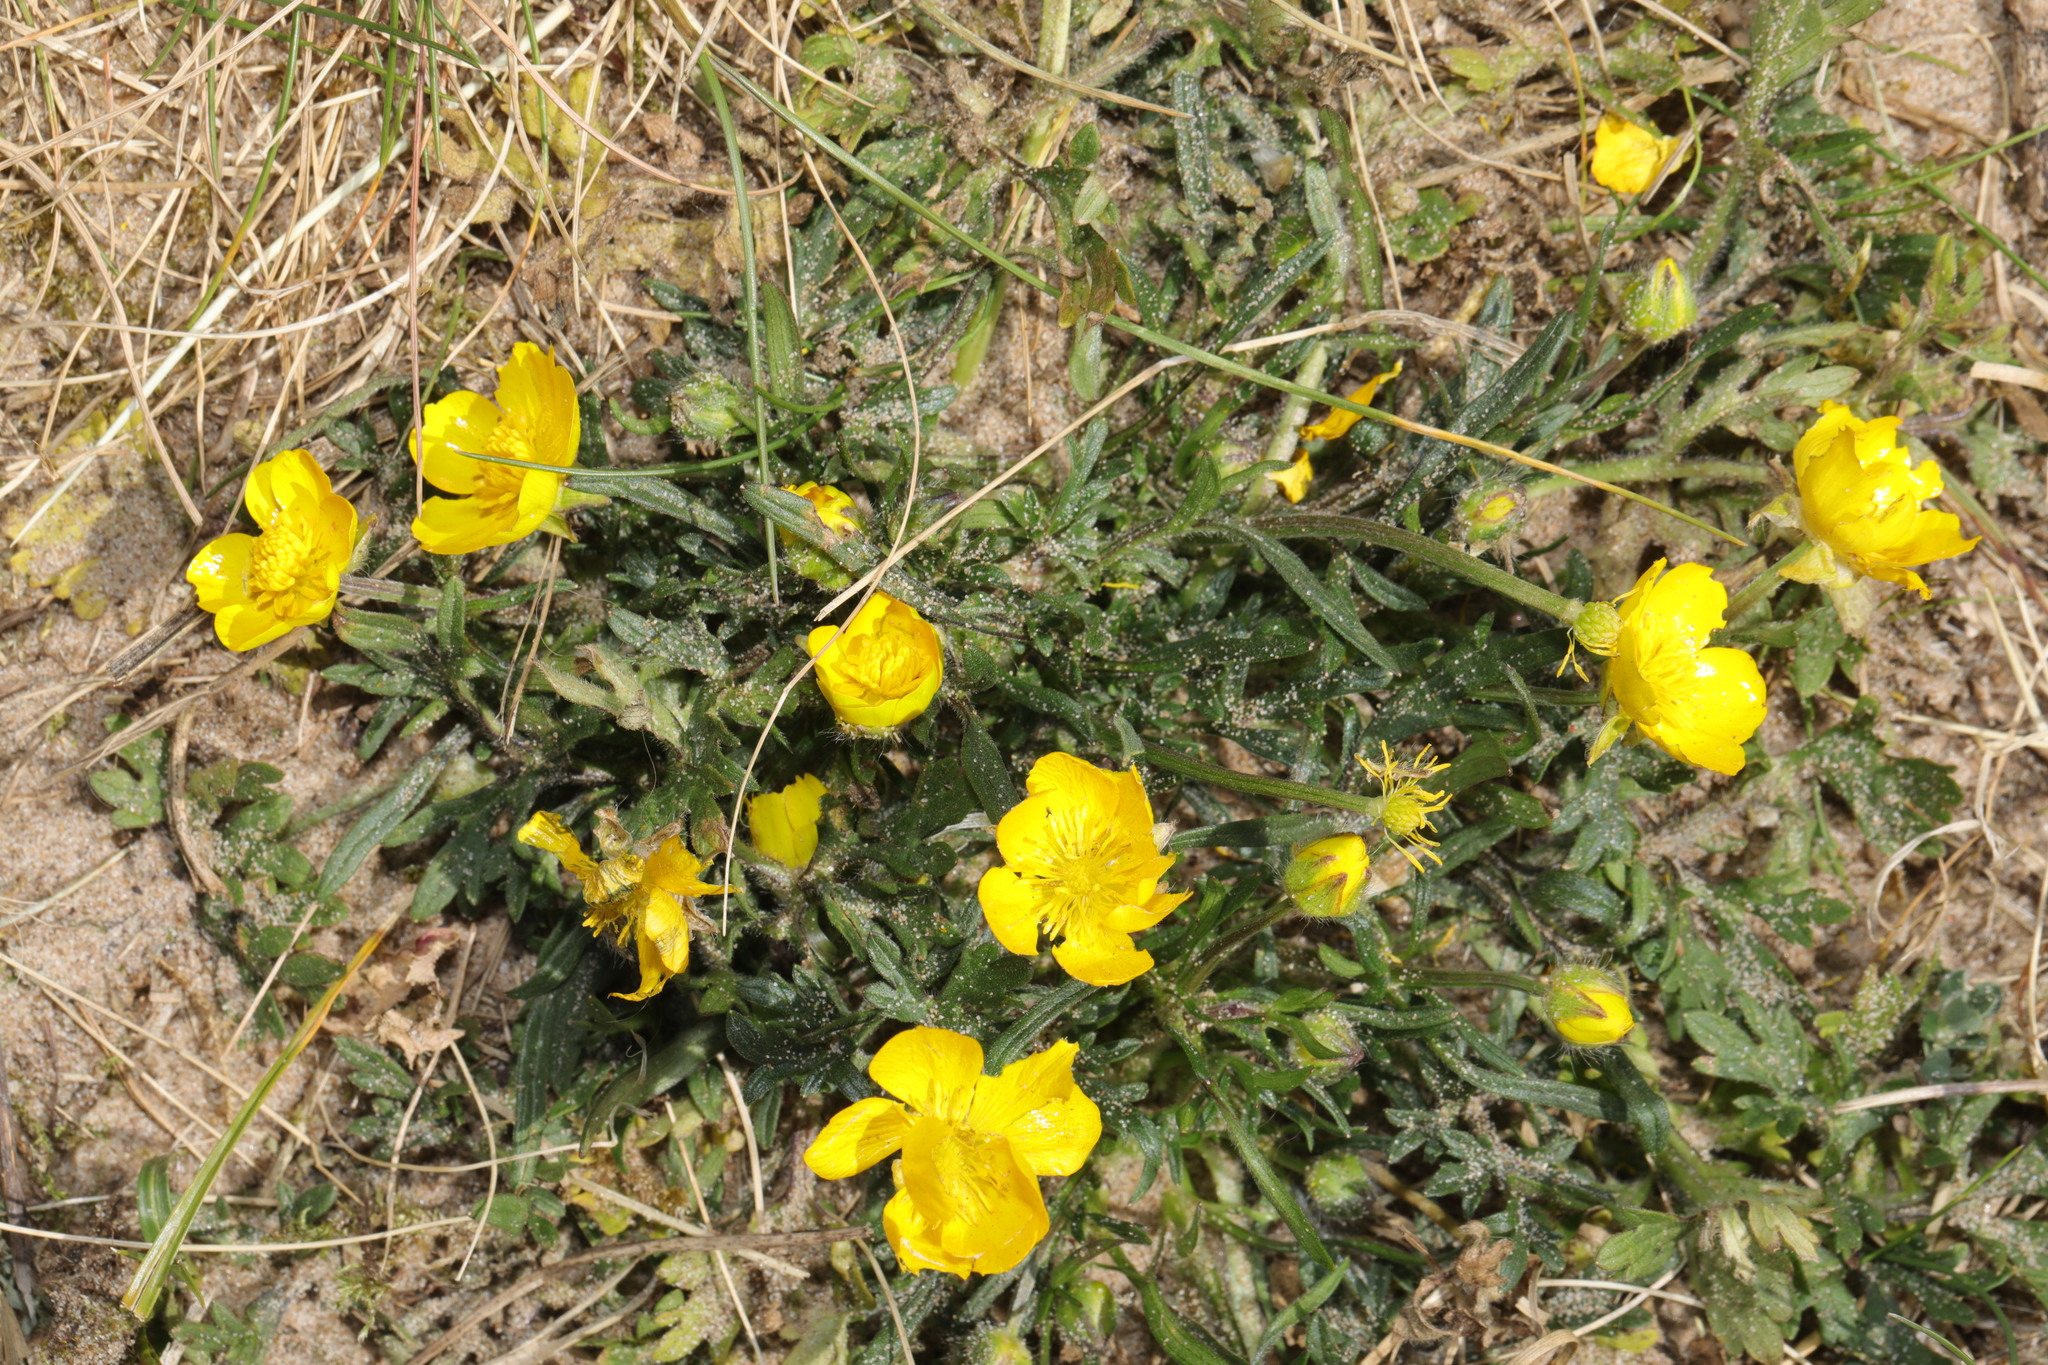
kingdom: Plantae
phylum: Tracheophyta
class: Magnoliopsida
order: Ranunculales
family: Ranunculaceae
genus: Ranunculus
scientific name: Ranunculus bulbosus
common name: Bulbous buttercup
